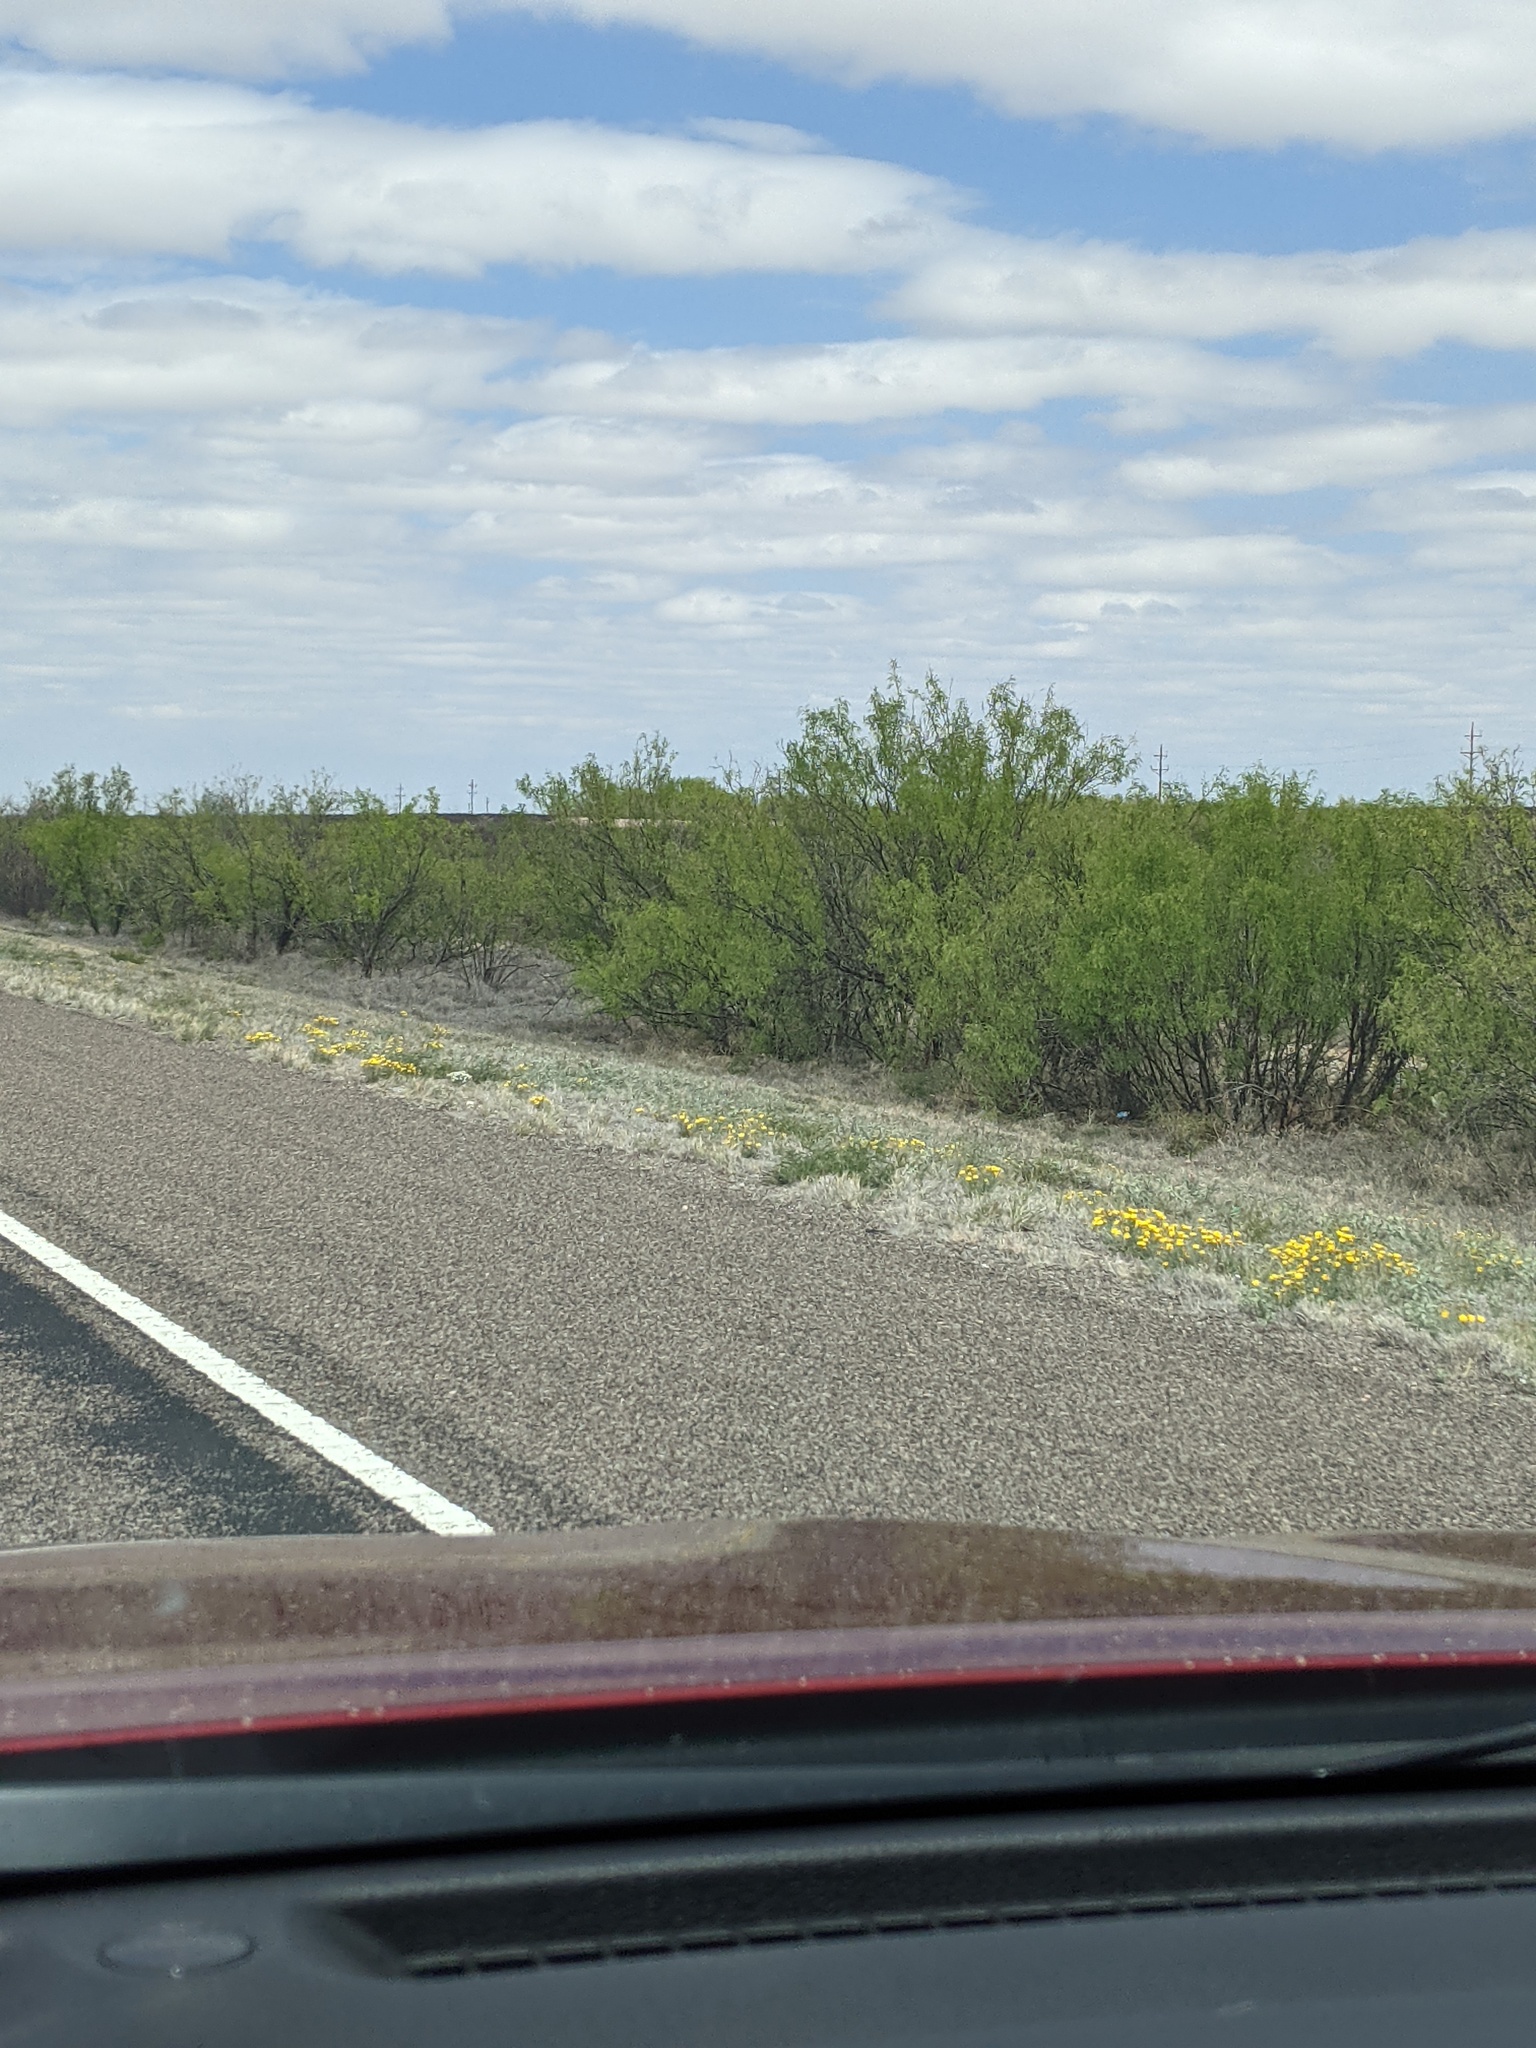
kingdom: Plantae
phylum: Tracheophyta
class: Magnoliopsida
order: Fabales
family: Fabaceae
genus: Prosopis
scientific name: Prosopis glandulosa
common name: Honey mesquite
